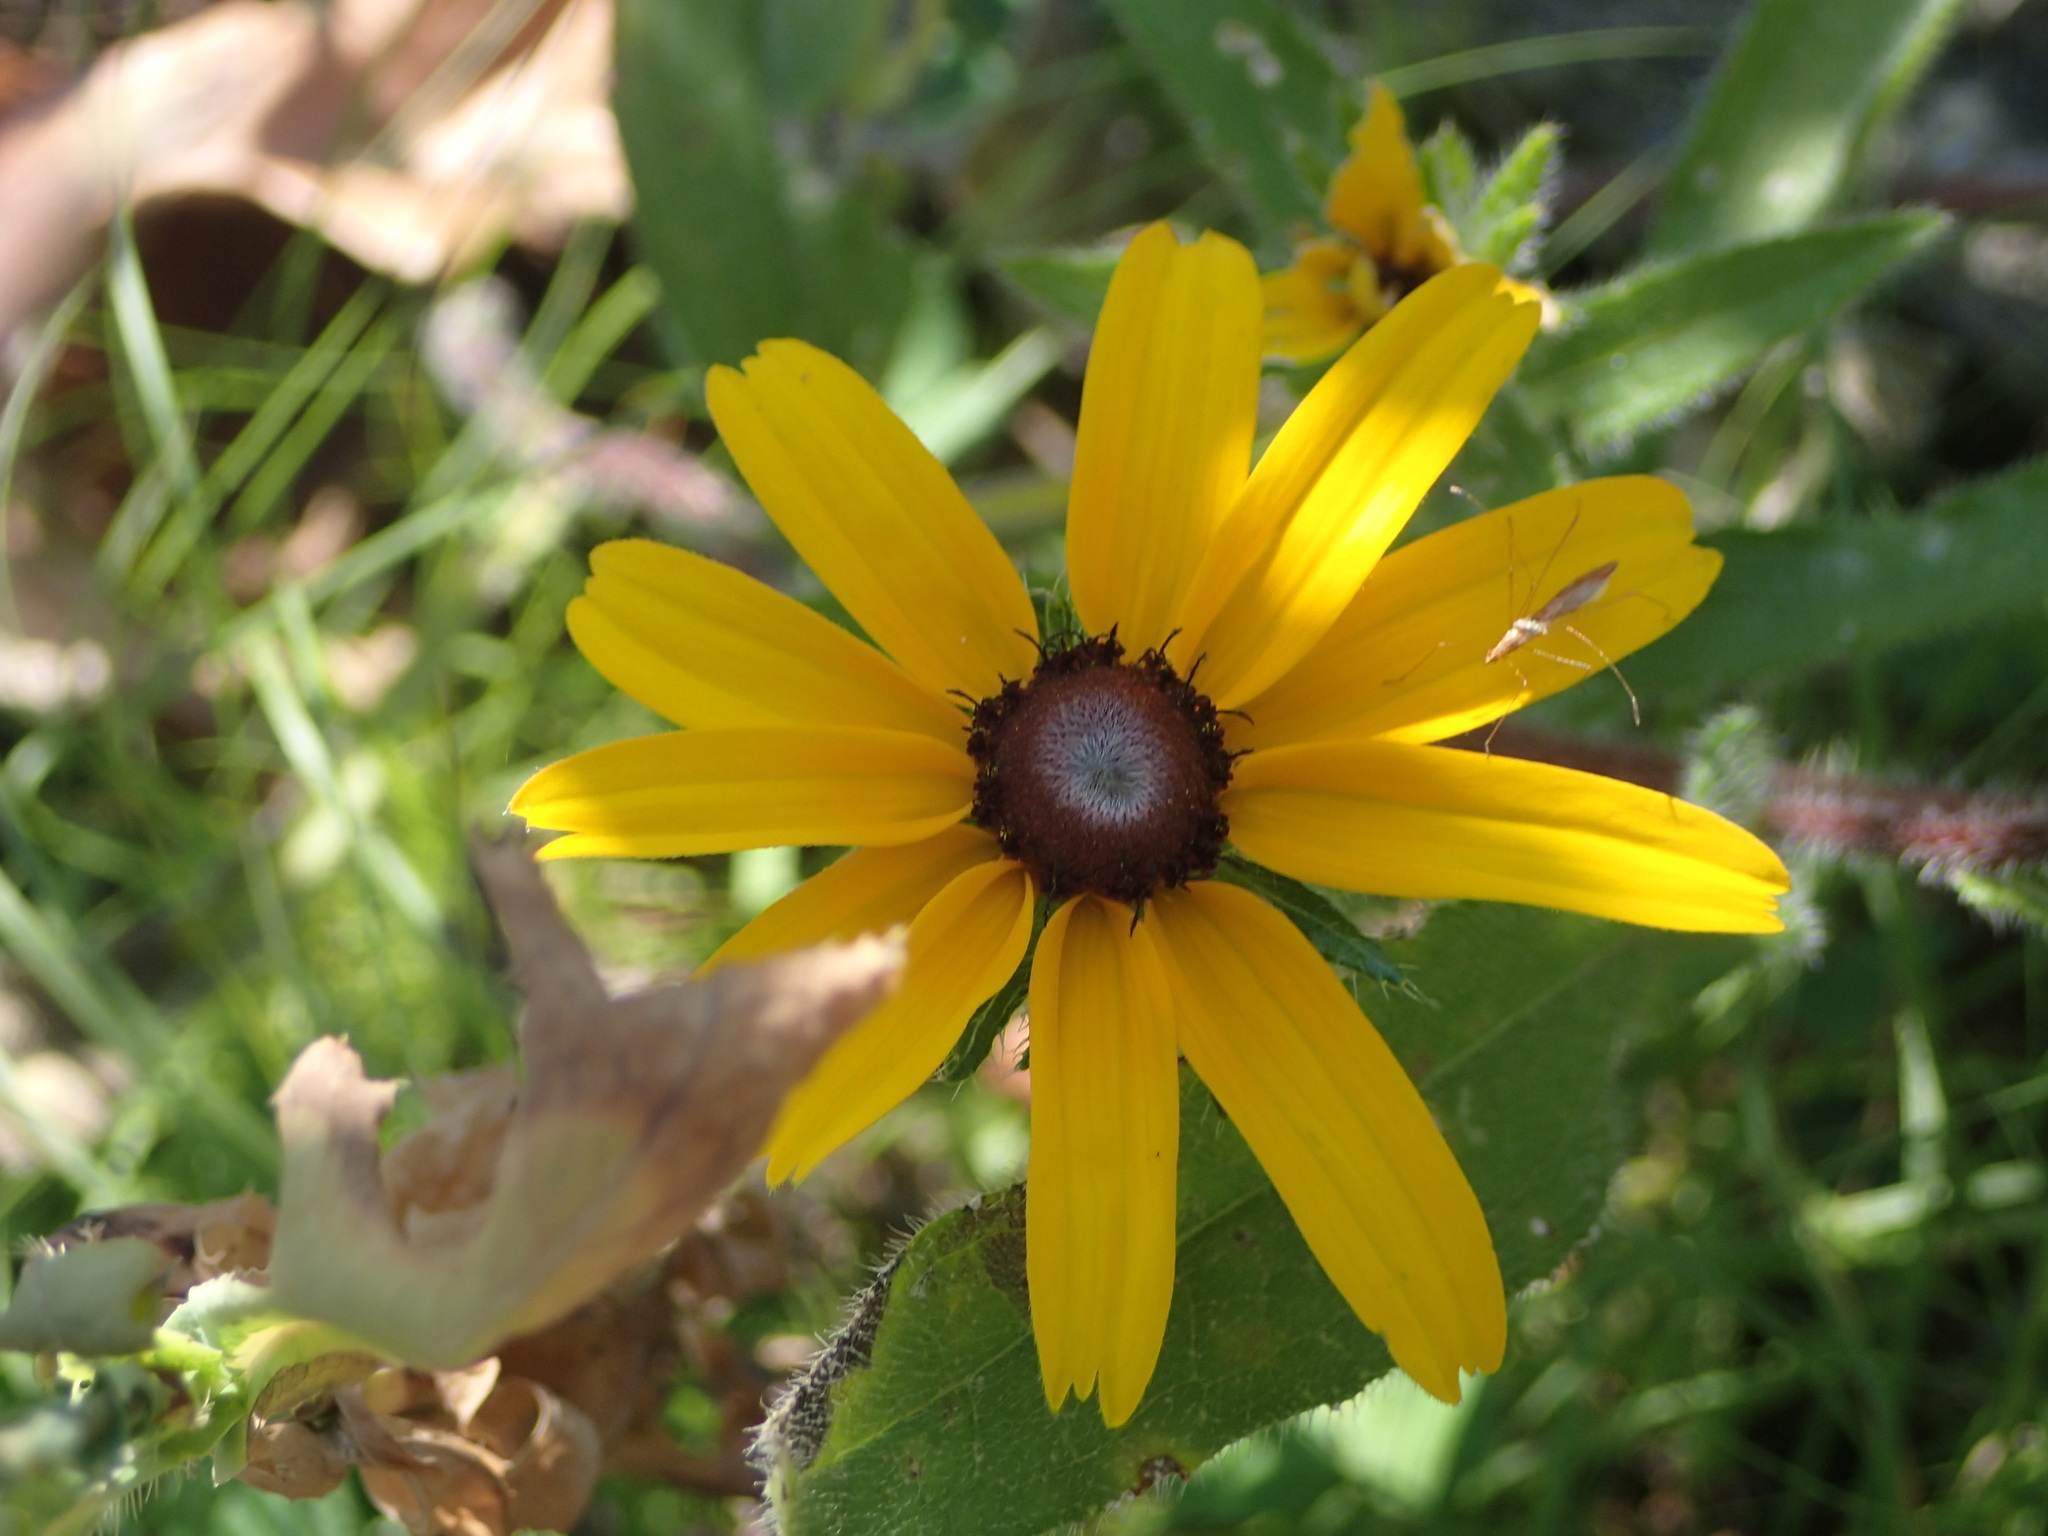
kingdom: Animalia
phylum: Arthropoda
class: Insecta
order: Hemiptera
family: Berytidae
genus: Jalysus
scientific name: Jalysus
